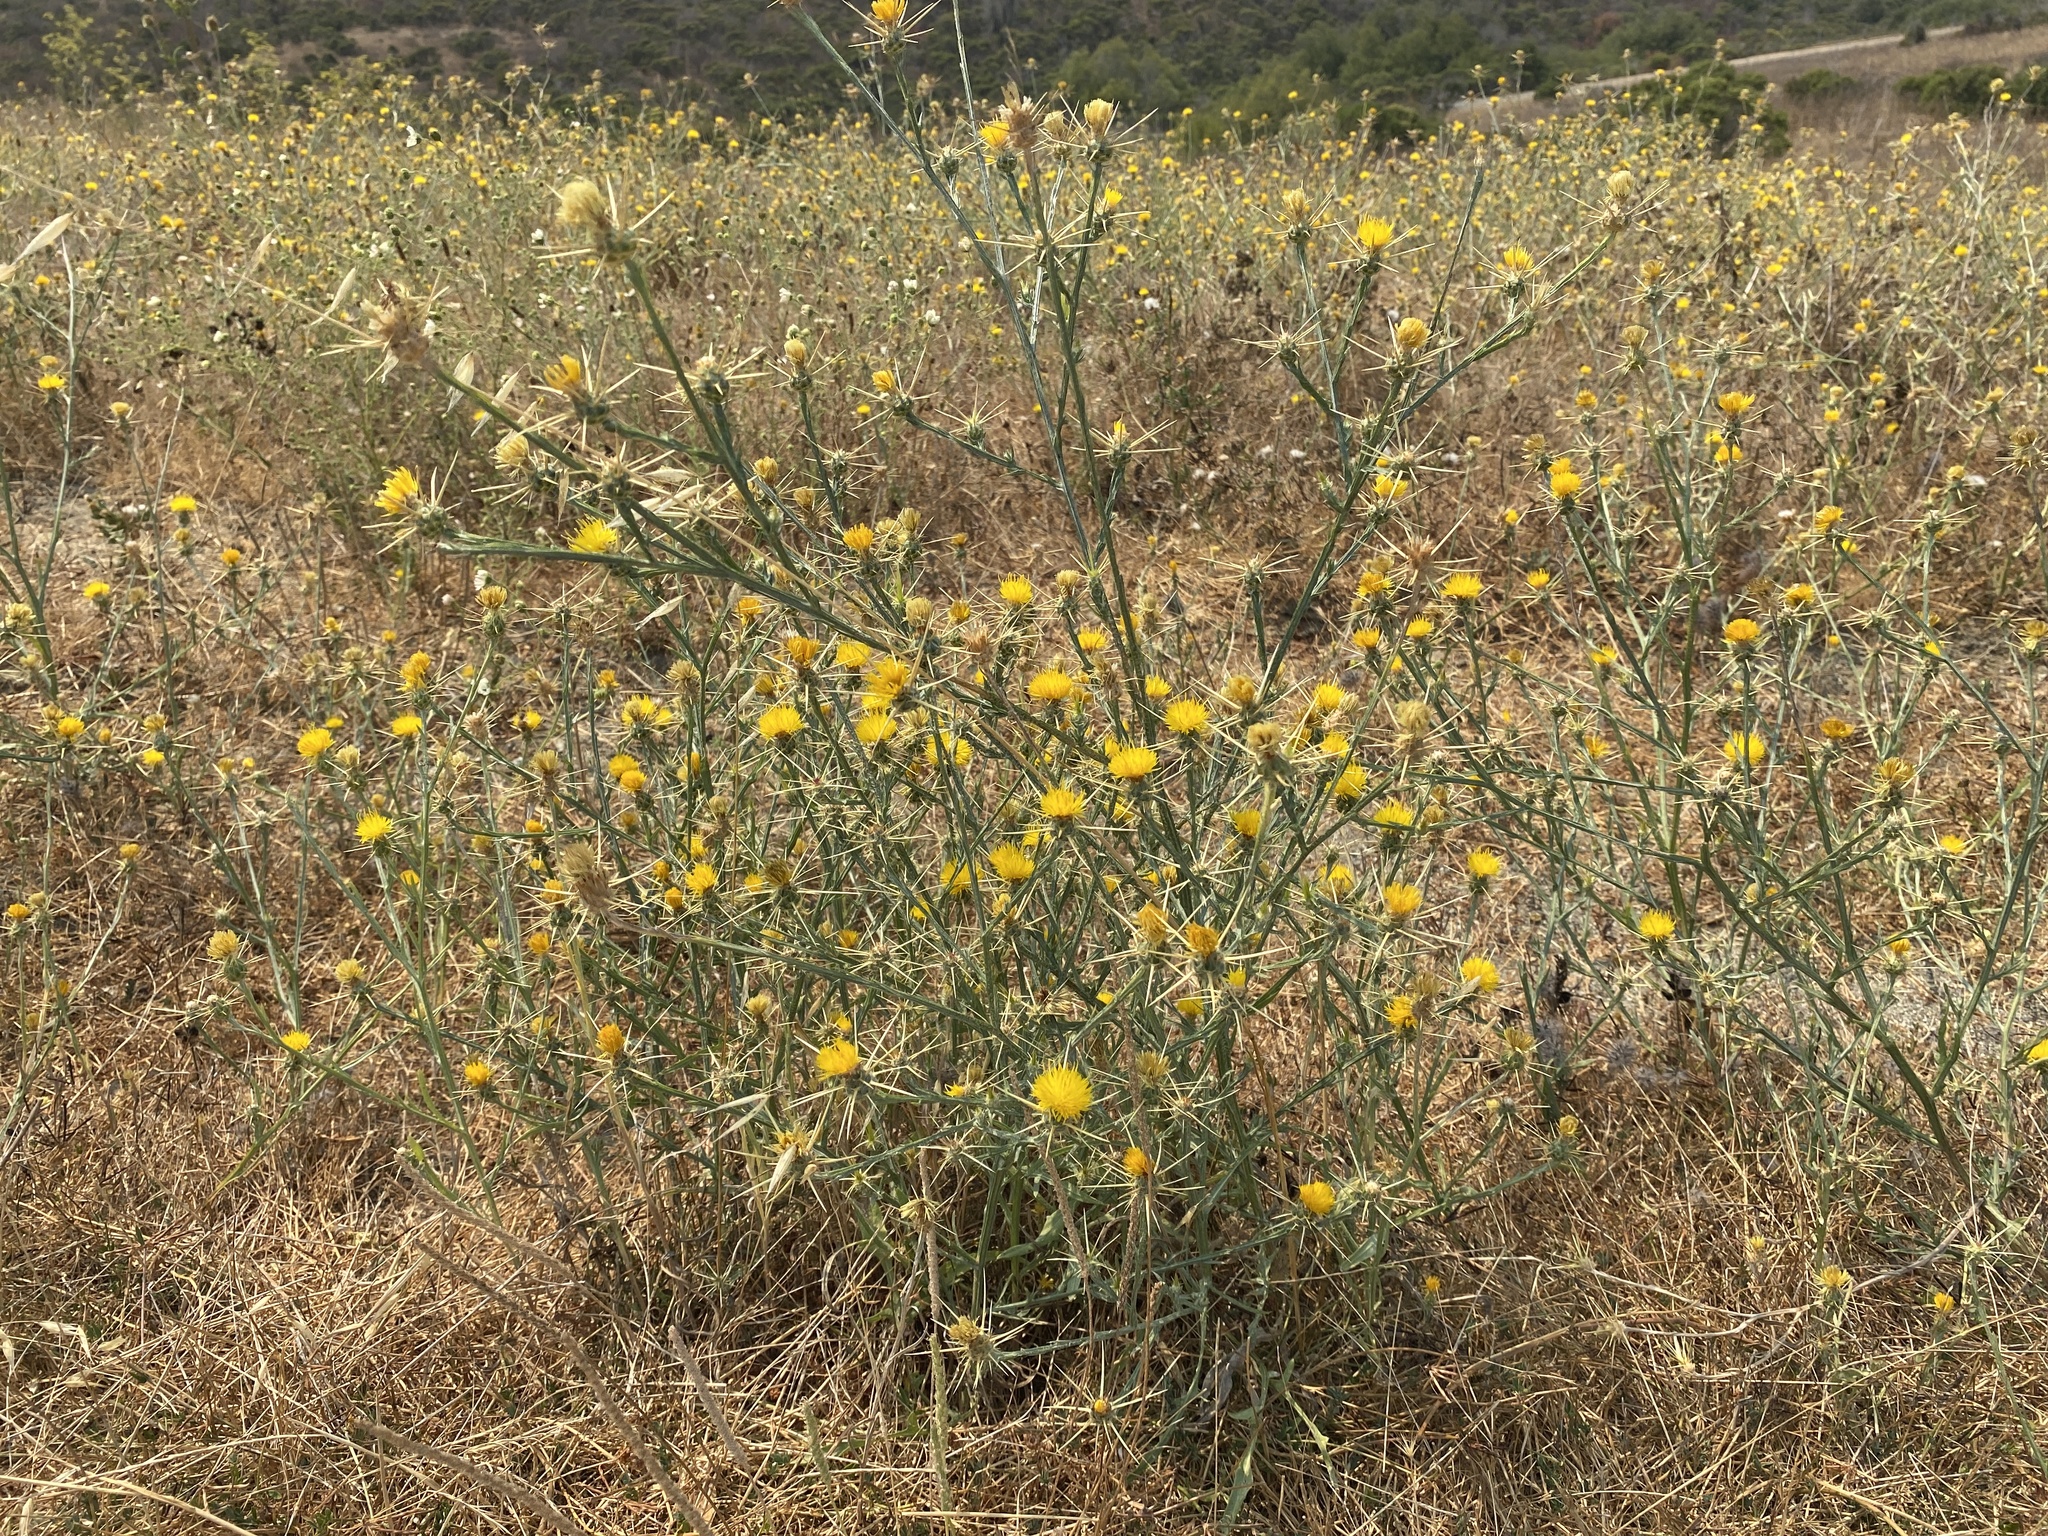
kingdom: Plantae
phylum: Tracheophyta
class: Magnoliopsida
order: Asterales
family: Asteraceae
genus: Centaurea
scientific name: Centaurea solstitialis
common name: Yellow star-thistle
